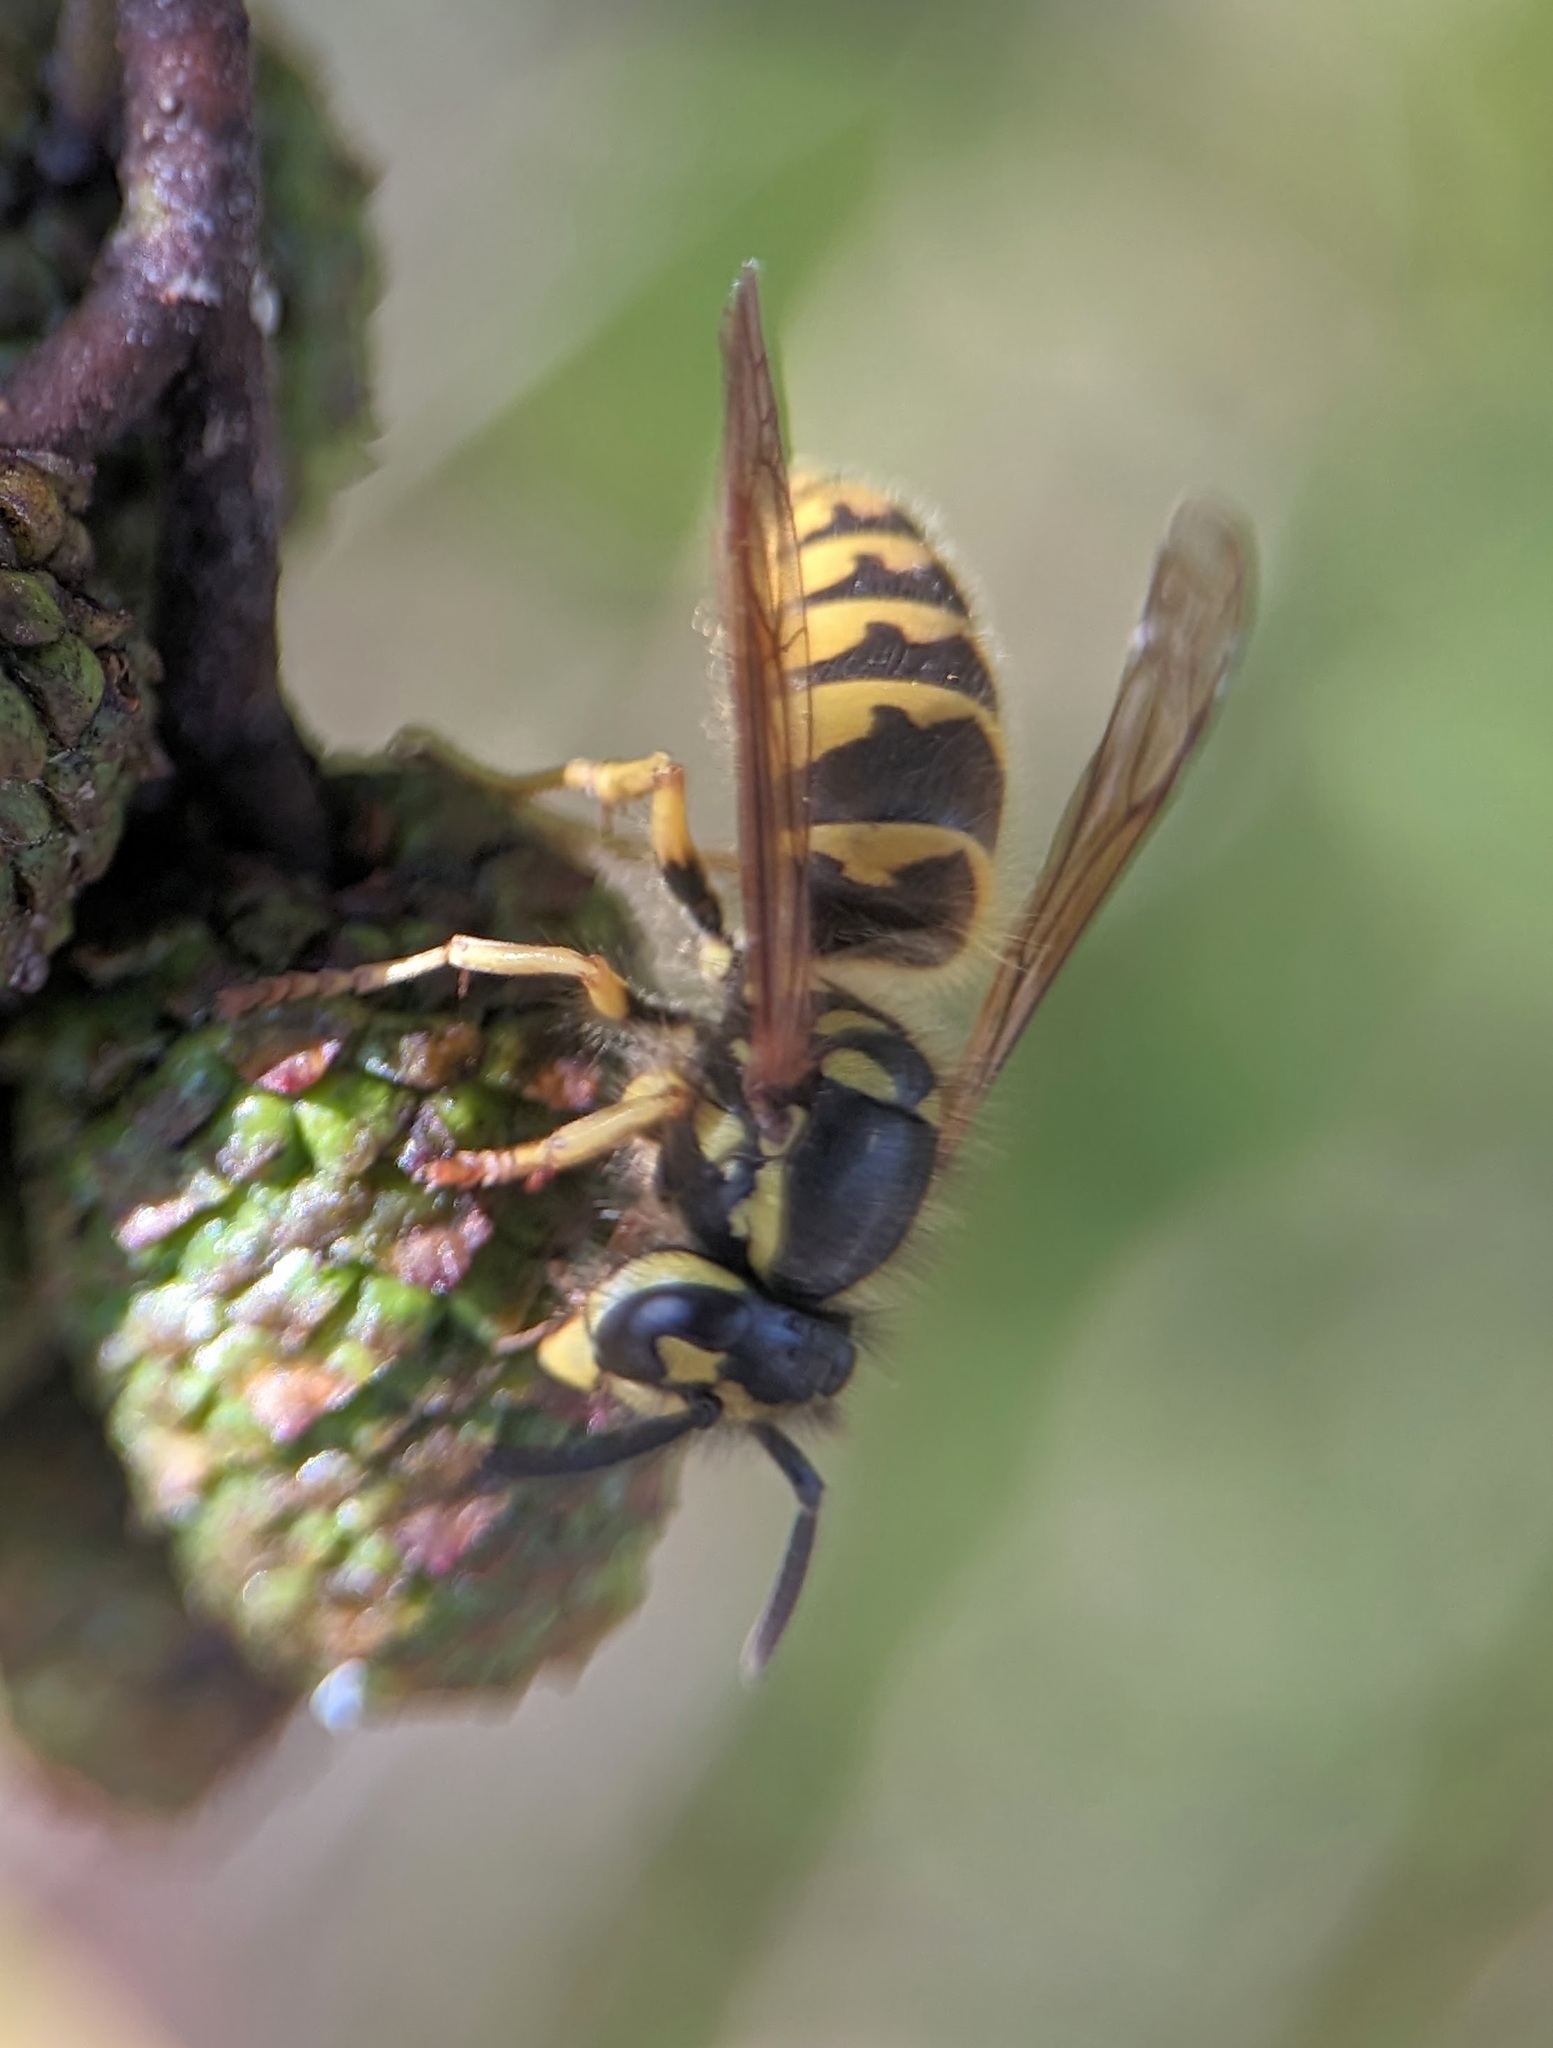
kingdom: Animalia
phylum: Arthropoda
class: Insecta
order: Hymenoptera
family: Vespidae
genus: Vespula
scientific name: Vespula flavopilosa
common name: Downy yellowjacket
